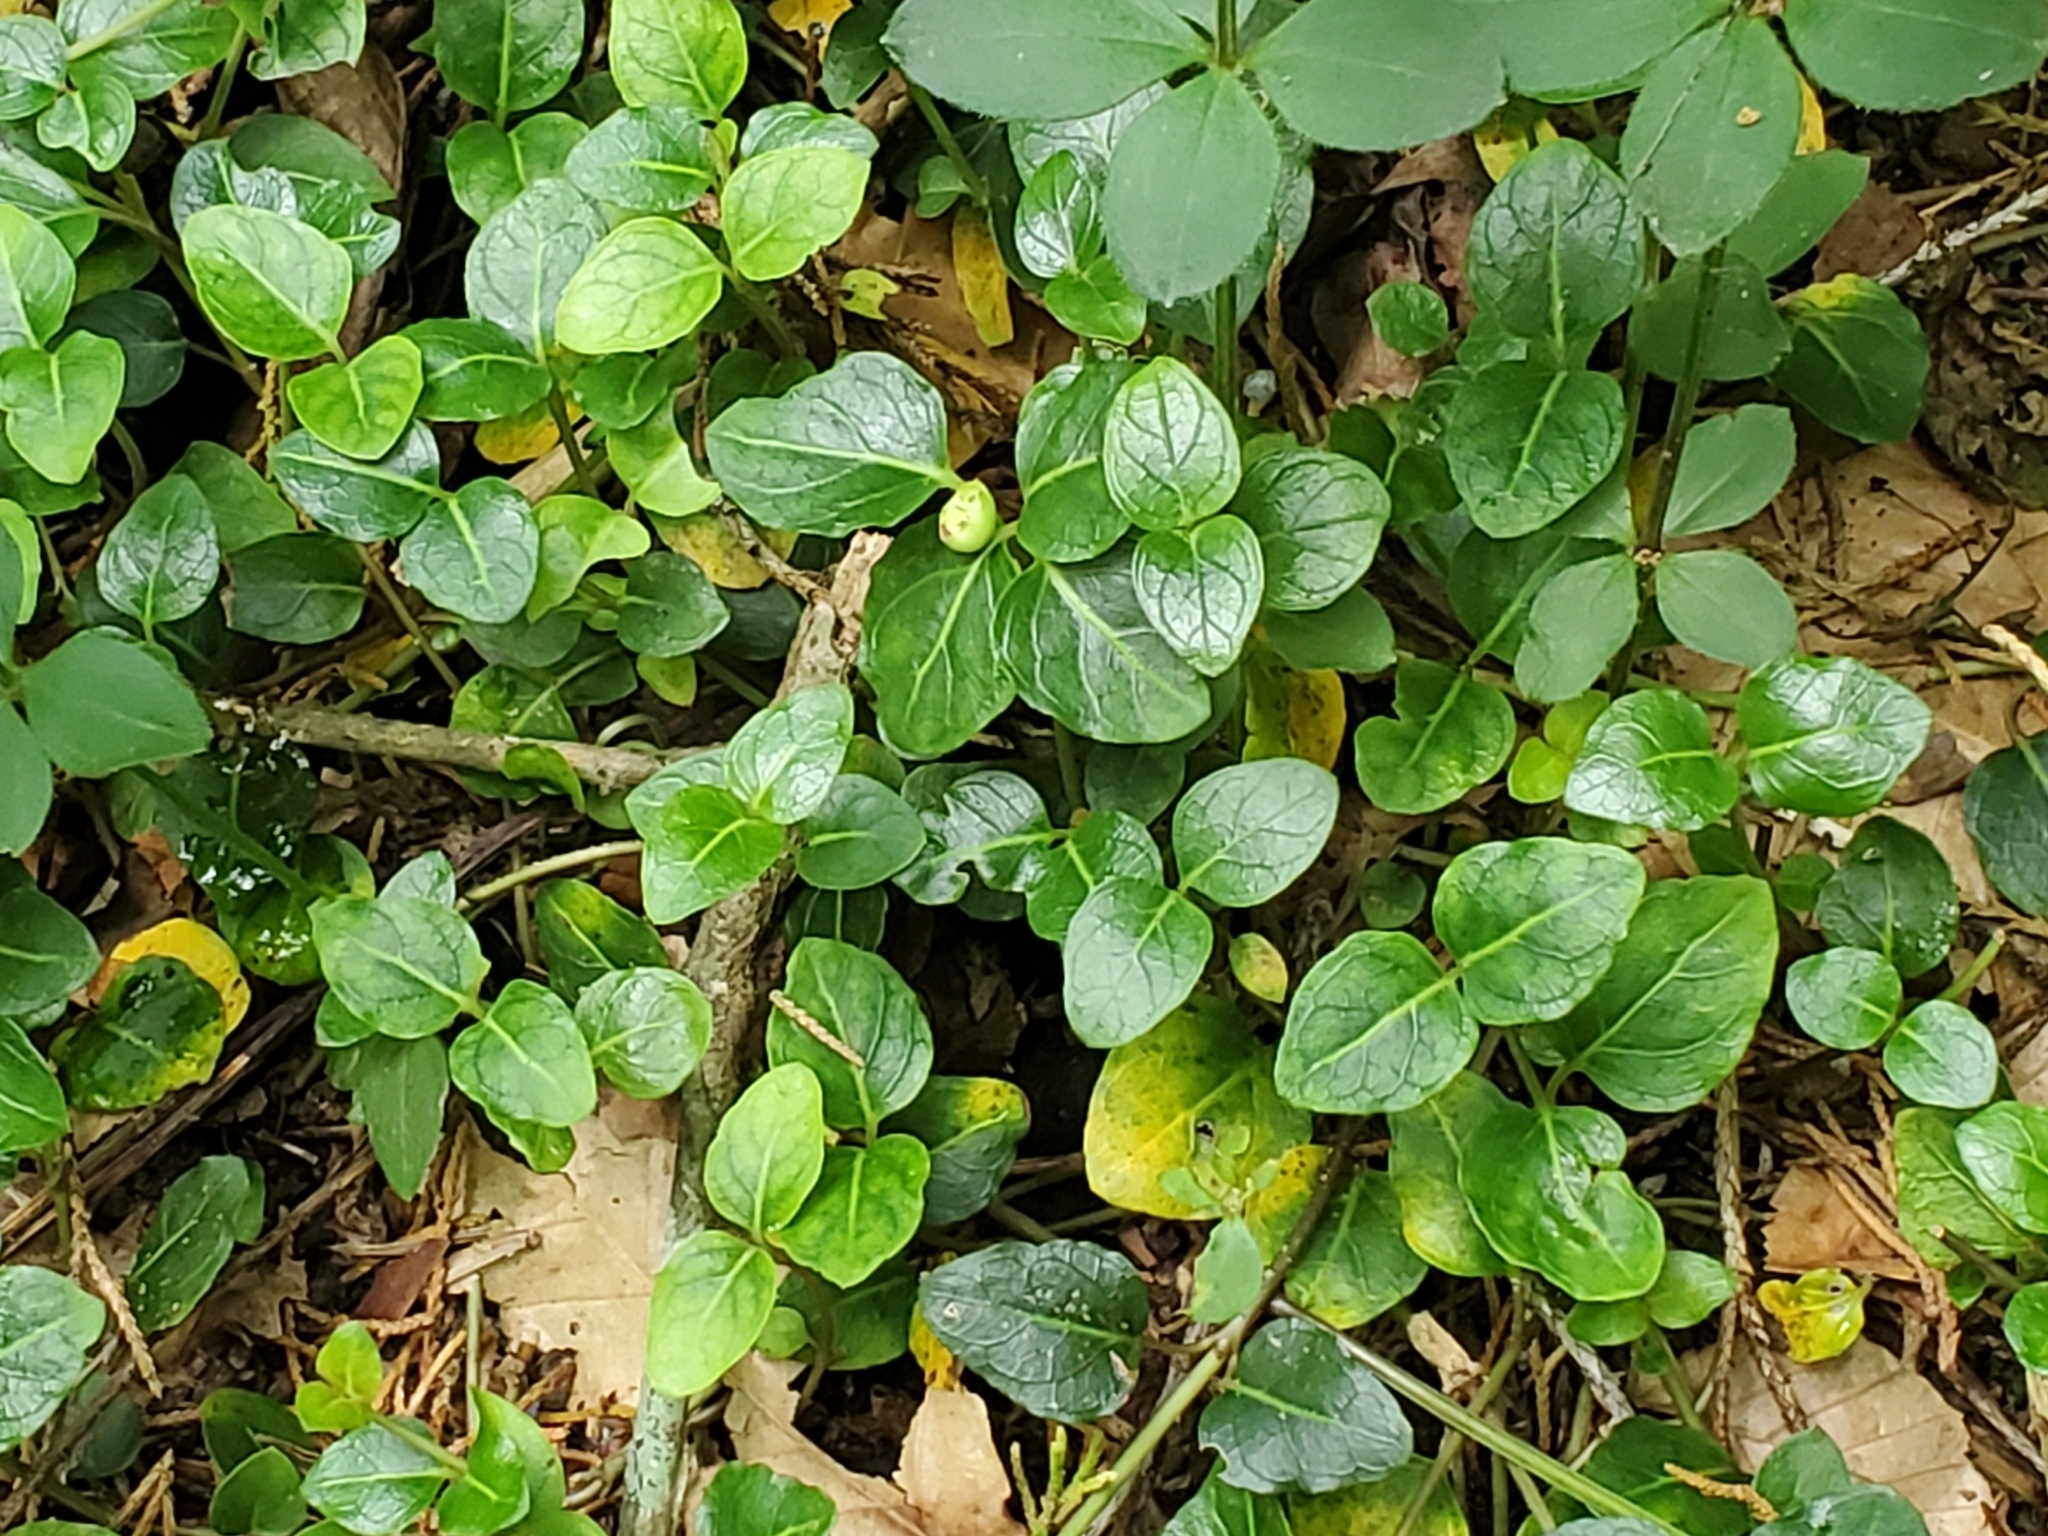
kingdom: Plantae
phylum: Tracheophyta
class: Magnoliopsida
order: Gentianales
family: Rubiaceae
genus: Mitchella
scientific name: Mitchella repens
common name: Partridge-berry
